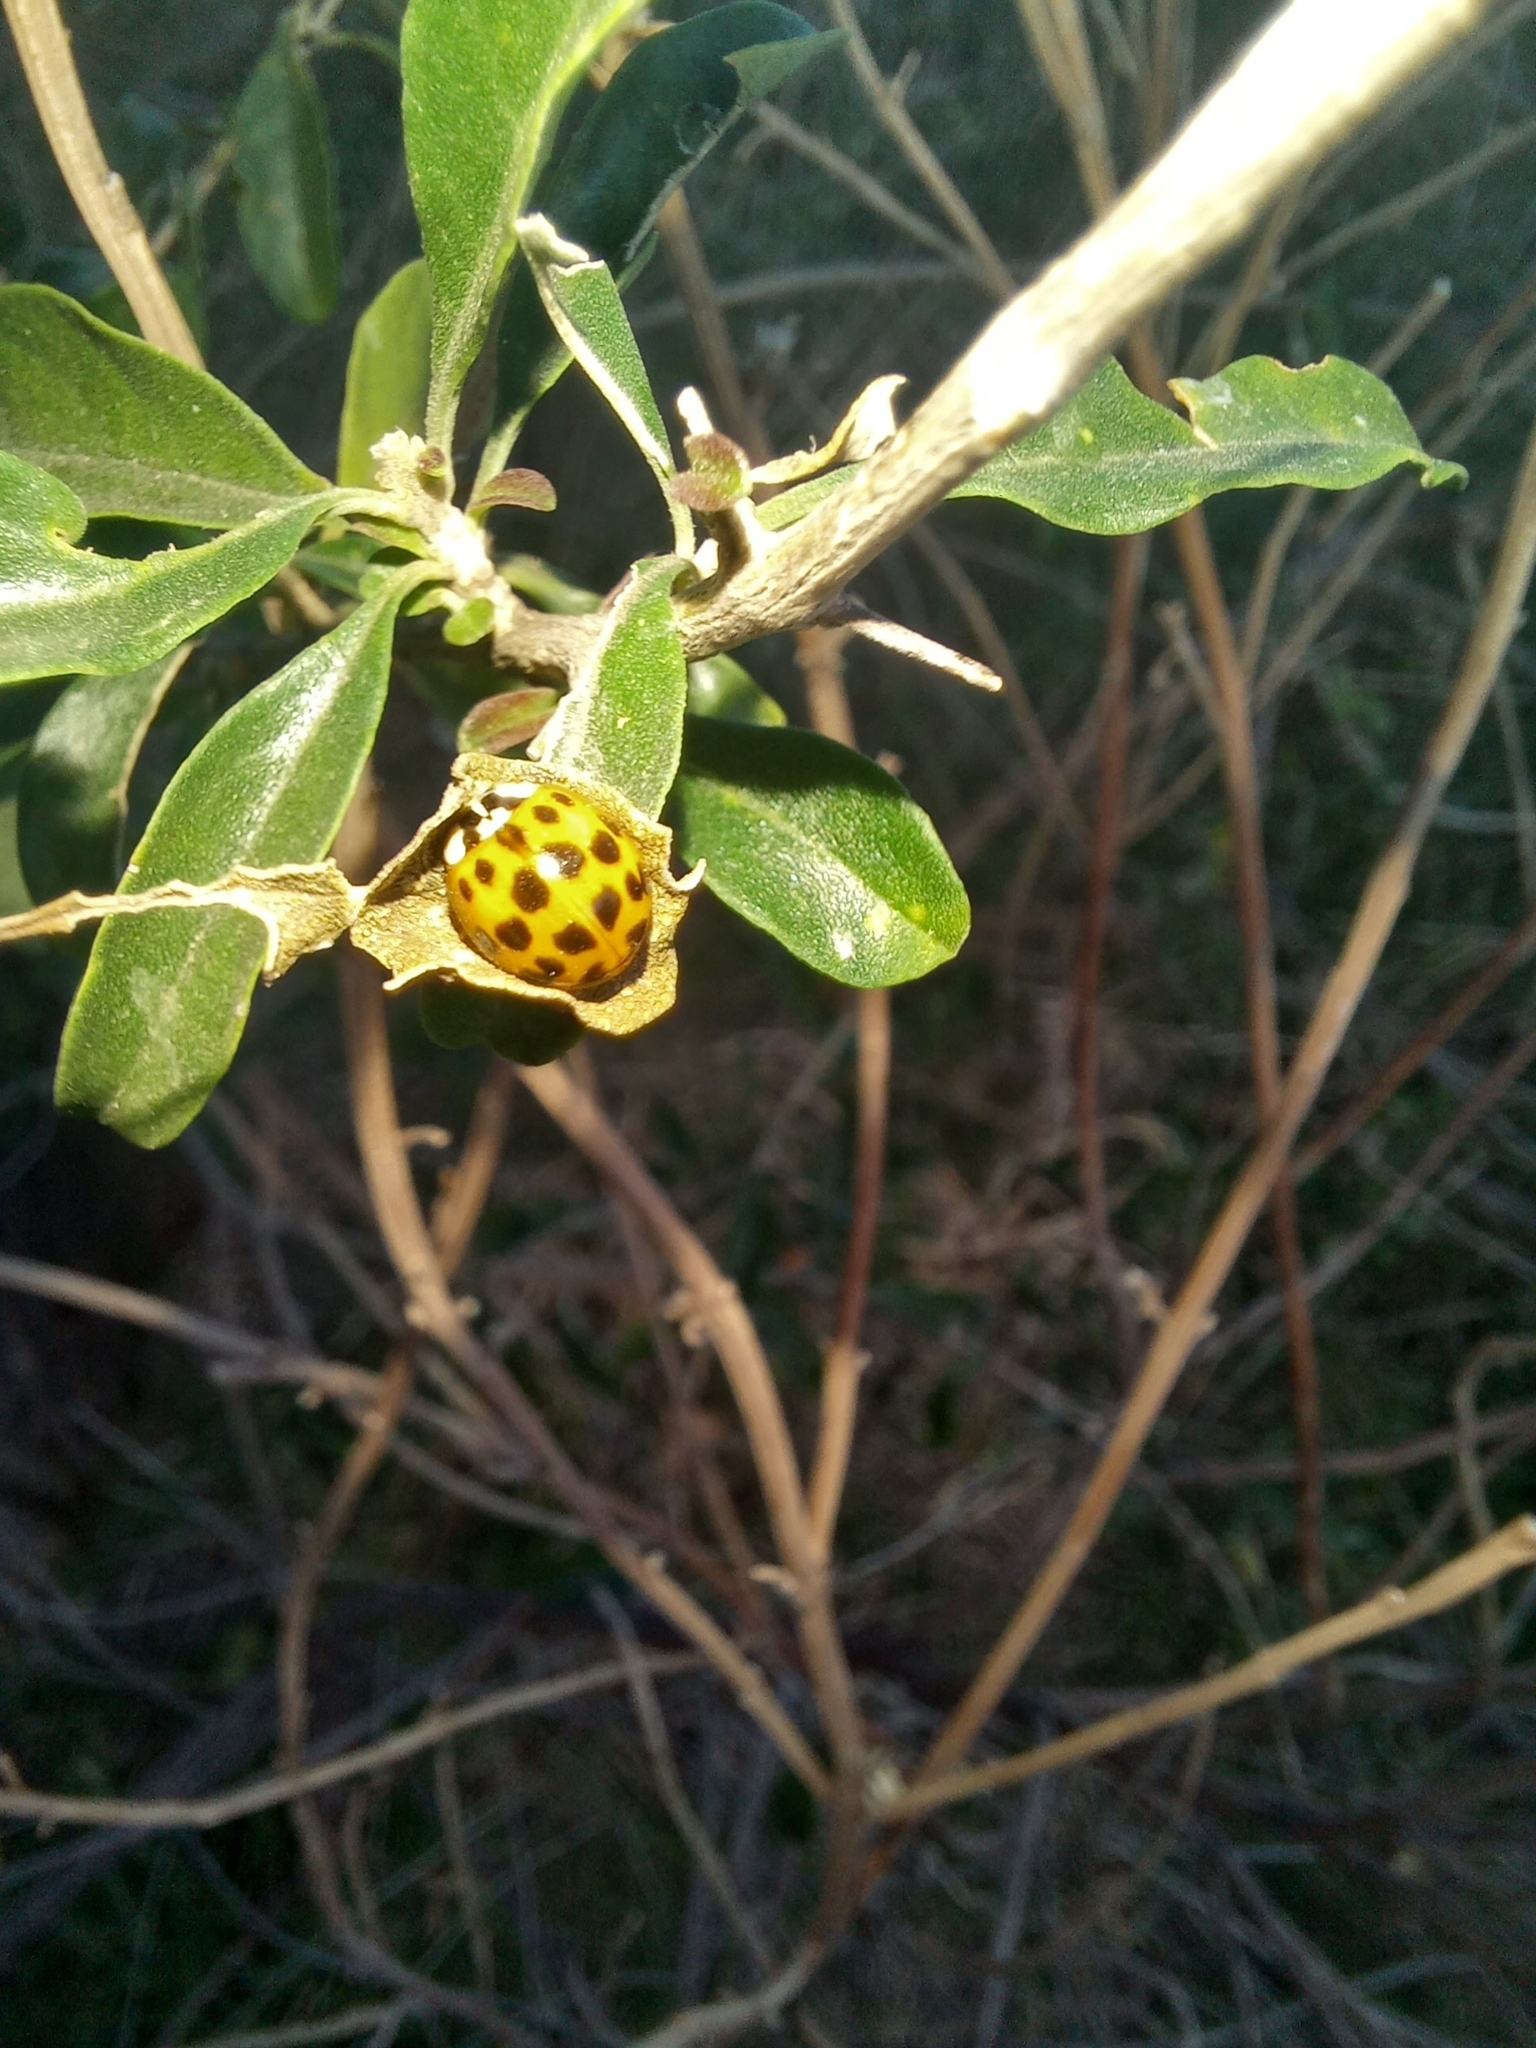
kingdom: Animalia
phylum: Arthropoda
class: Insecta
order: Coleoptera
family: Coccinellidae
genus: Harmonia
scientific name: Harmonia axyridis
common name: Harlequin ladybird
